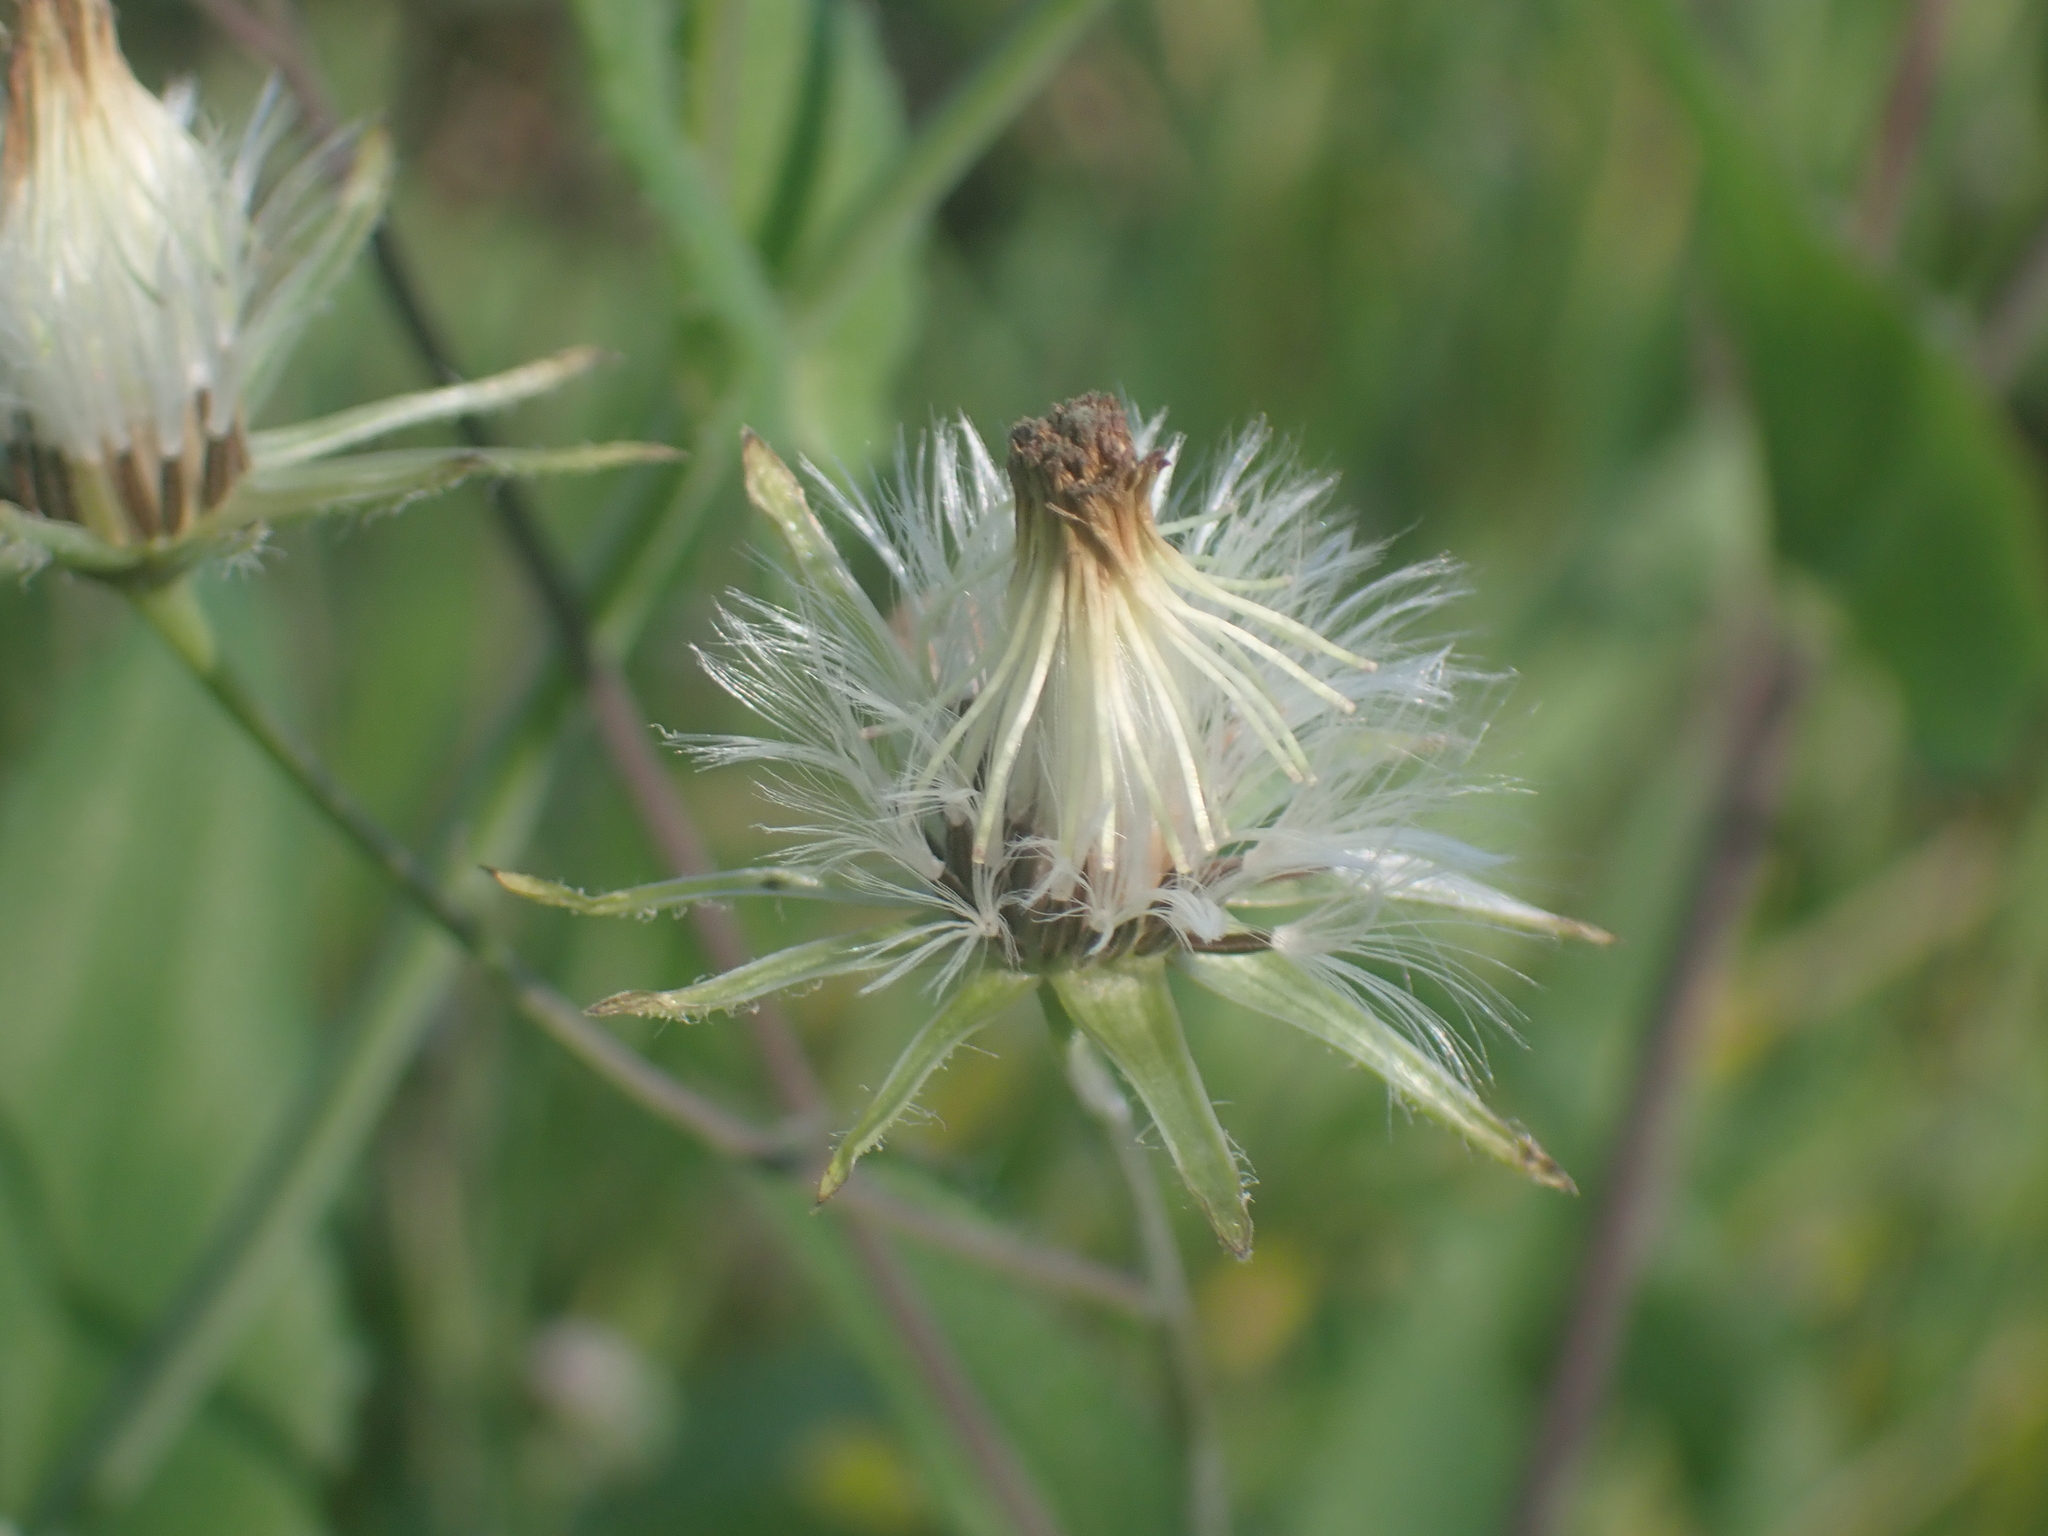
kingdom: Plantae
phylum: Tracheophyta
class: Magnoliopsida
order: Asterales
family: Asteraceae
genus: Emilia
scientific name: Emilia praetermissa
